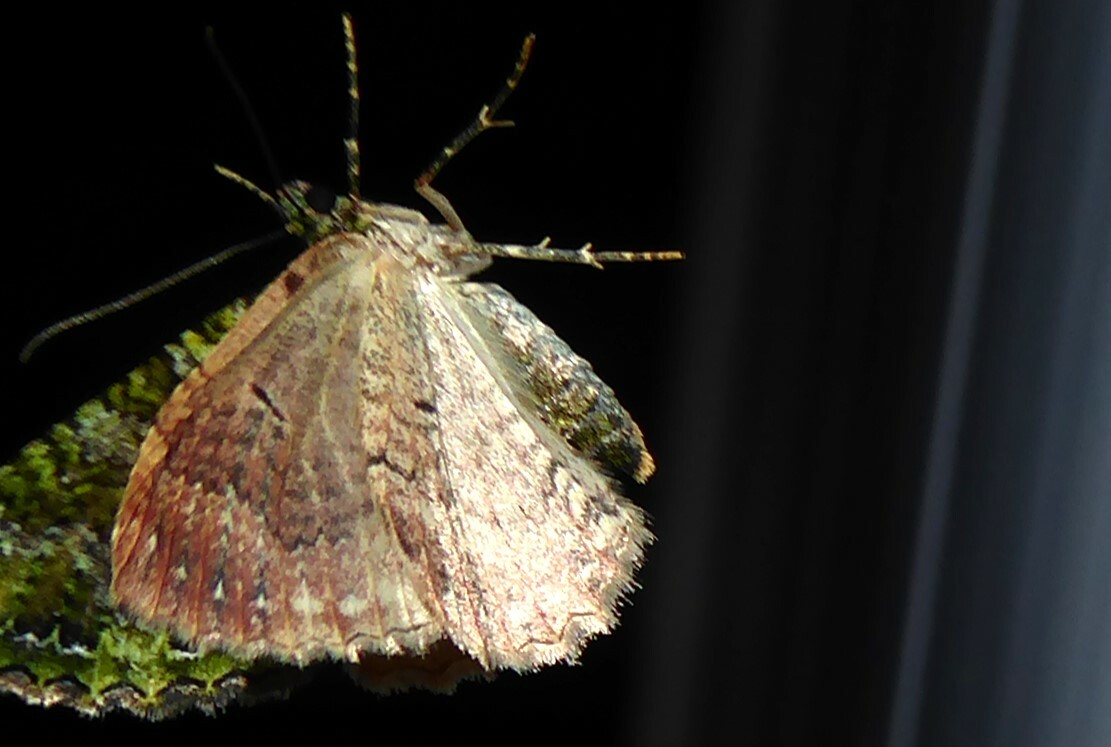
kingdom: Animalia
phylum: Arthropoda
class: Insecta
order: Lepidoptera
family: Geometridae
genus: Austrocidaria
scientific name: Austrocidaria similata
